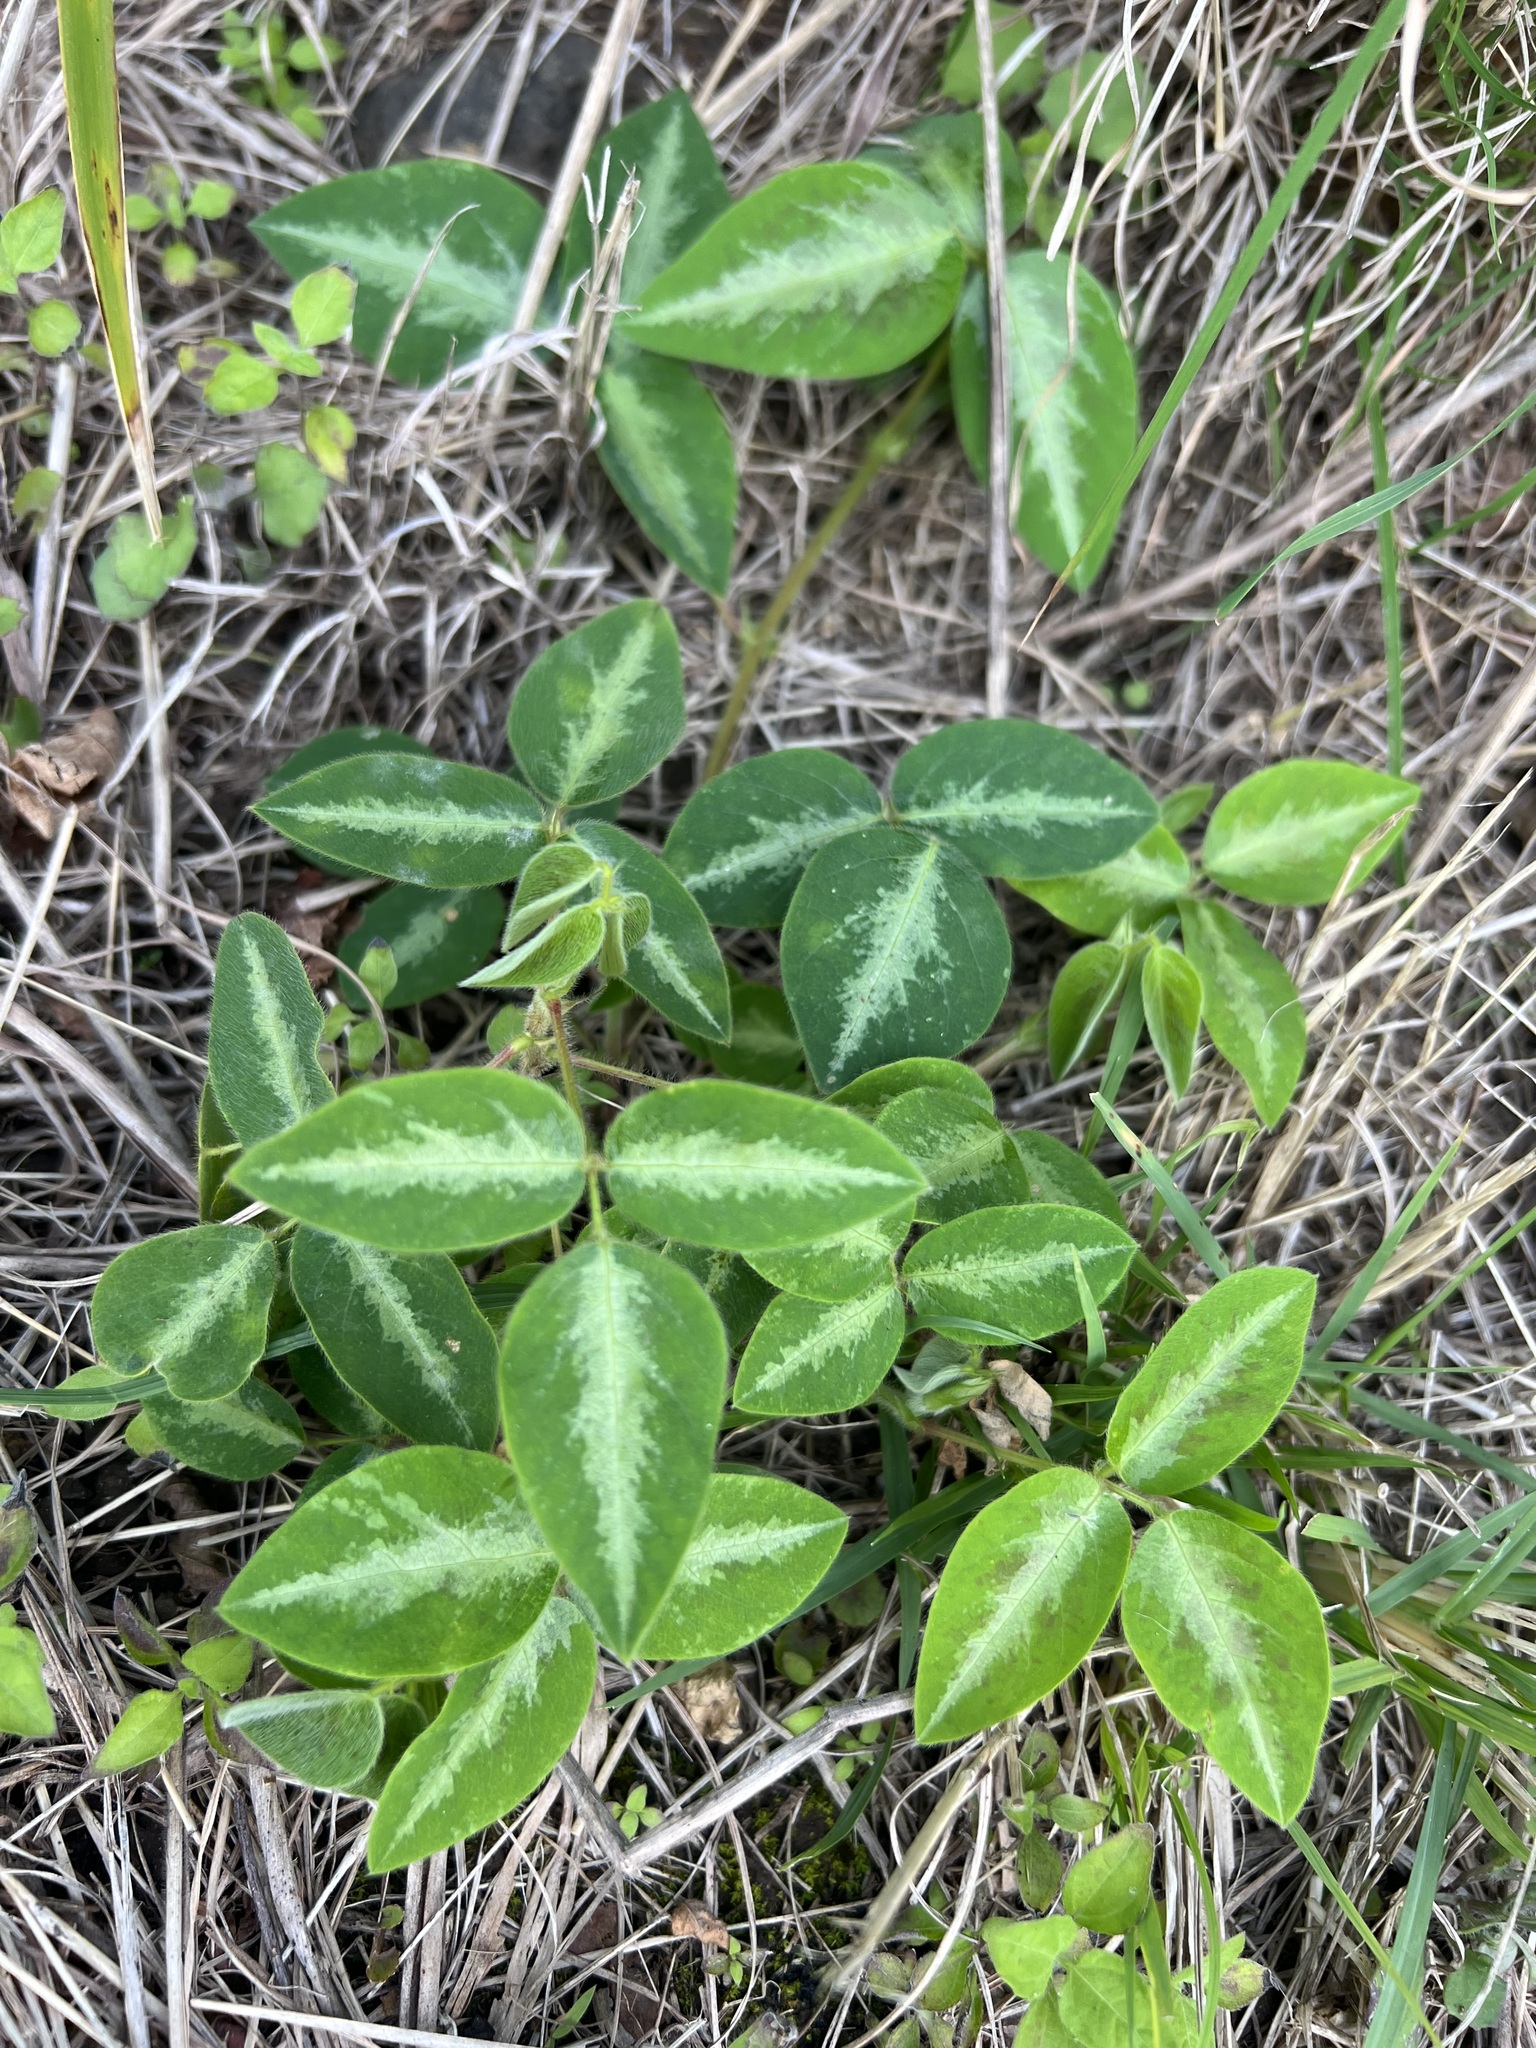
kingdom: Plantae
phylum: Tracheophyta
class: Magnoliopsida
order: Fabales
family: Fabaceae
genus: Desmodium
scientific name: Desmodium uncinatum
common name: Silverleaf desmodium
